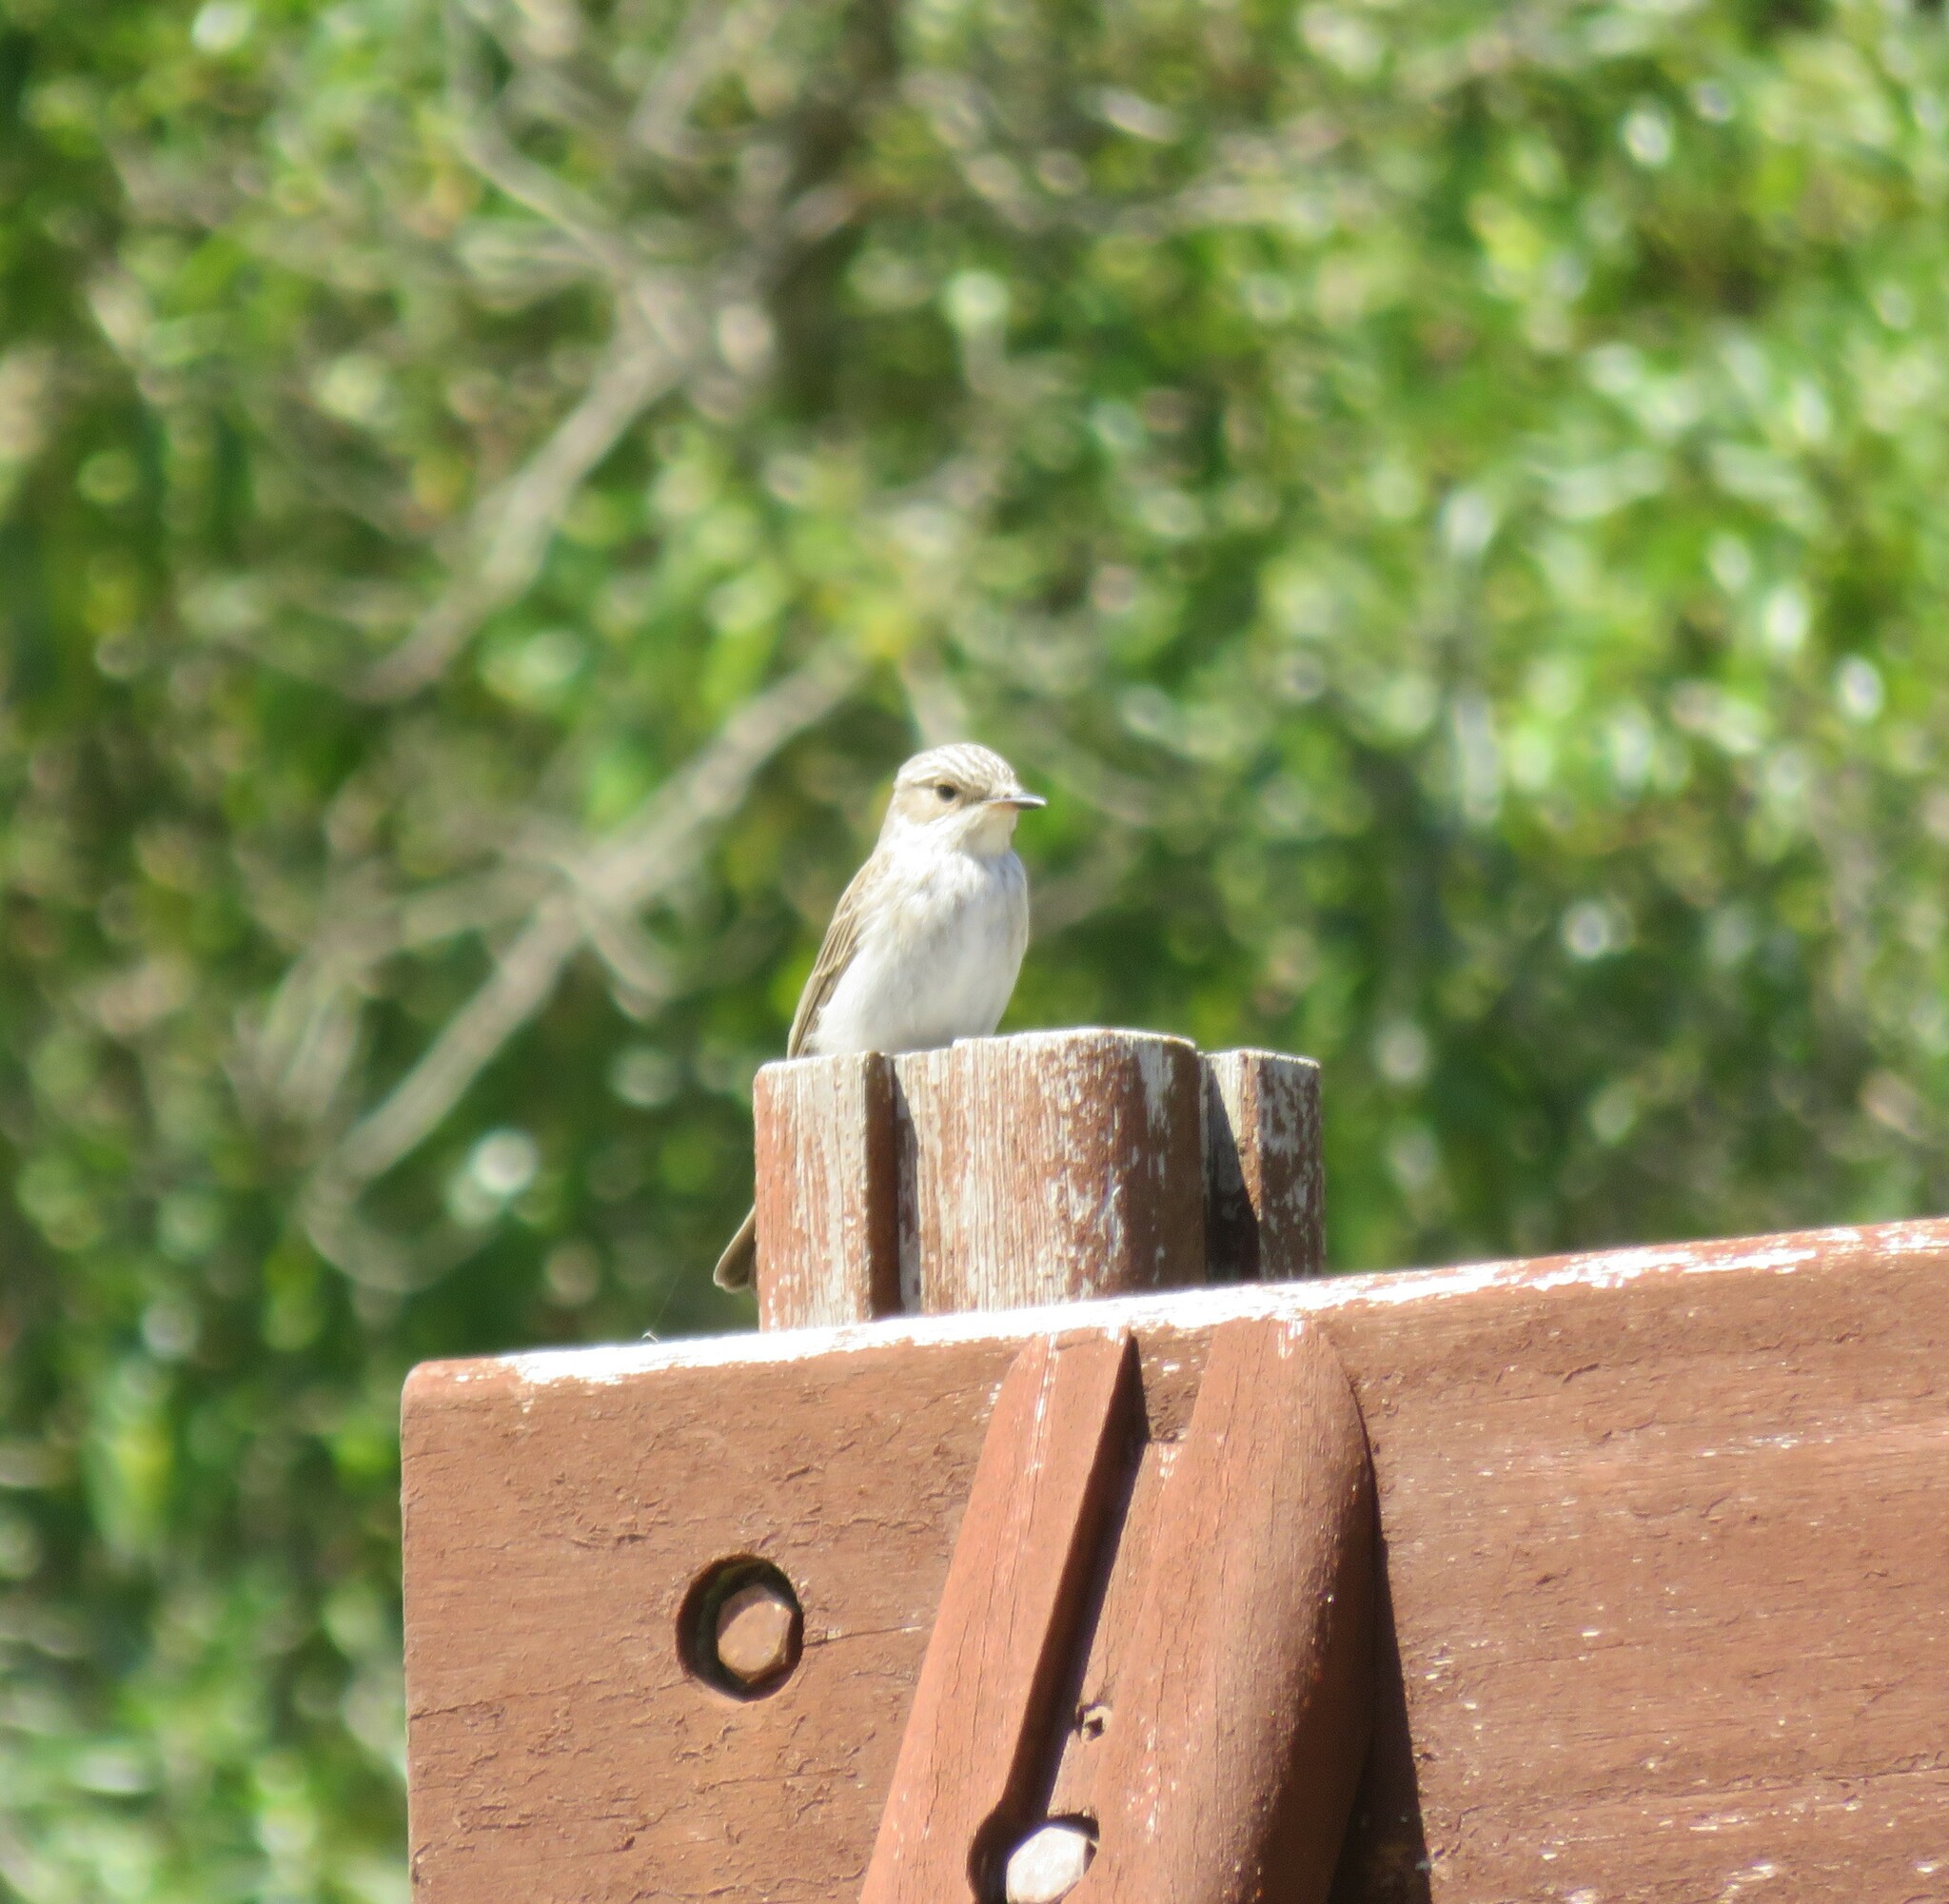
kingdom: Animalia
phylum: Chordata
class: Aves
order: Passeriformes
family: Muscicapidae
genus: Muscicapa
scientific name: Muscicapa striata
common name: Spotted flycatcher
